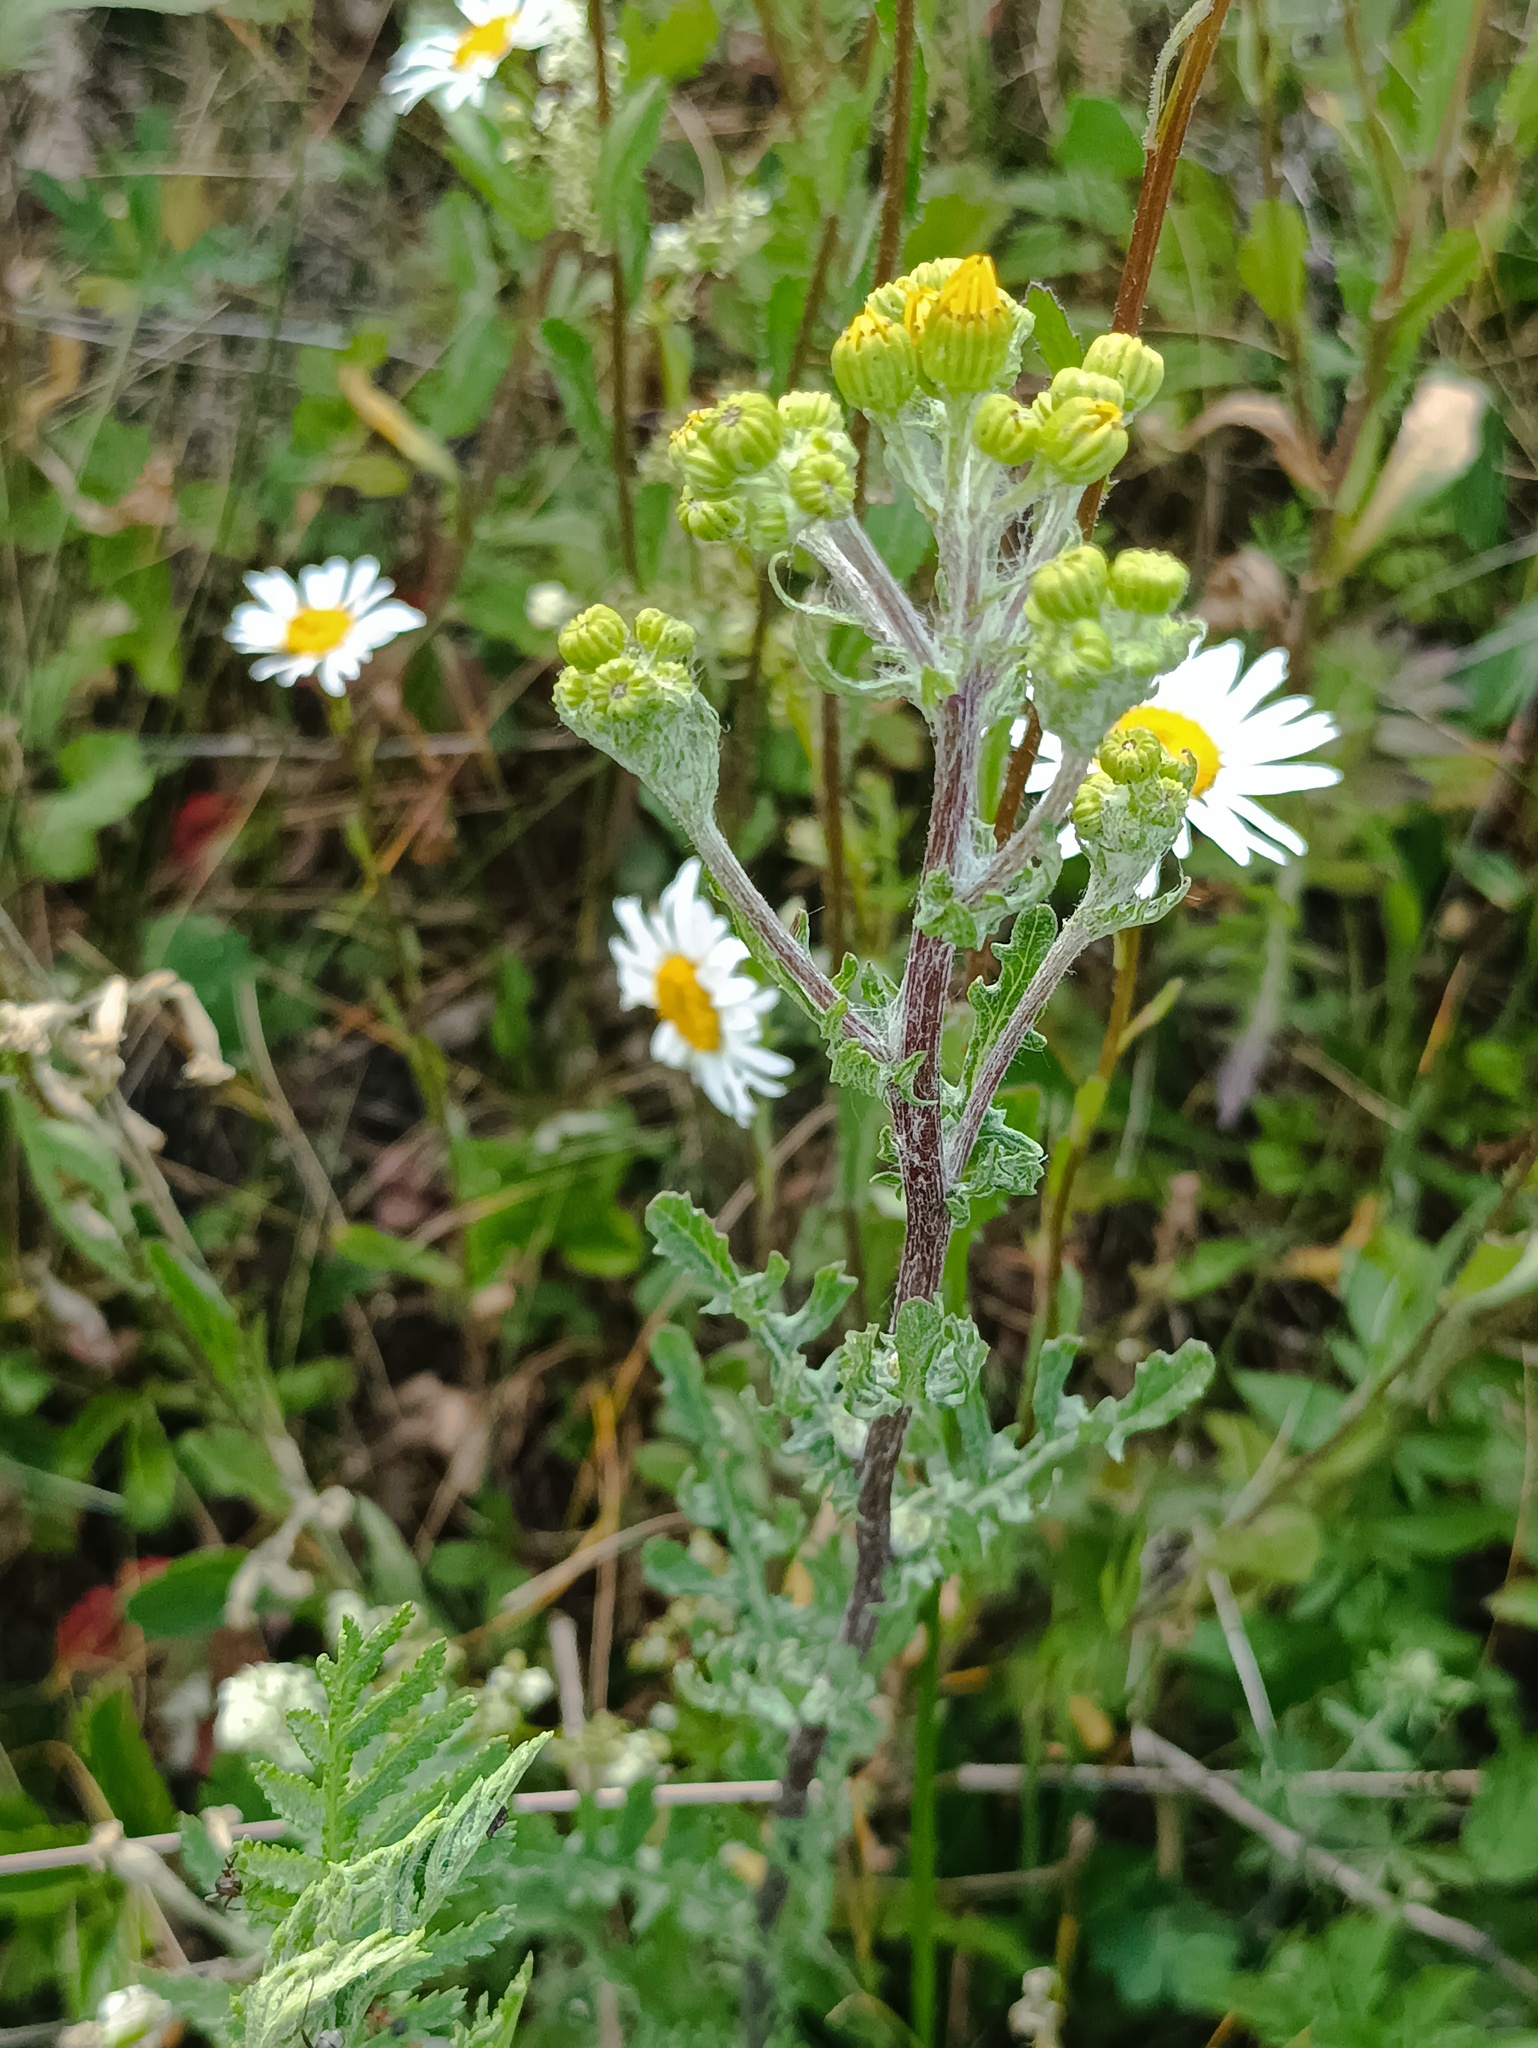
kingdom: Plantae
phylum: Tracheophyta
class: Magnoliopsida
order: Asterales
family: Asteraceae
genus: Jacobaea
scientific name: Jacobaea vulgaris
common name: Stinking willie
